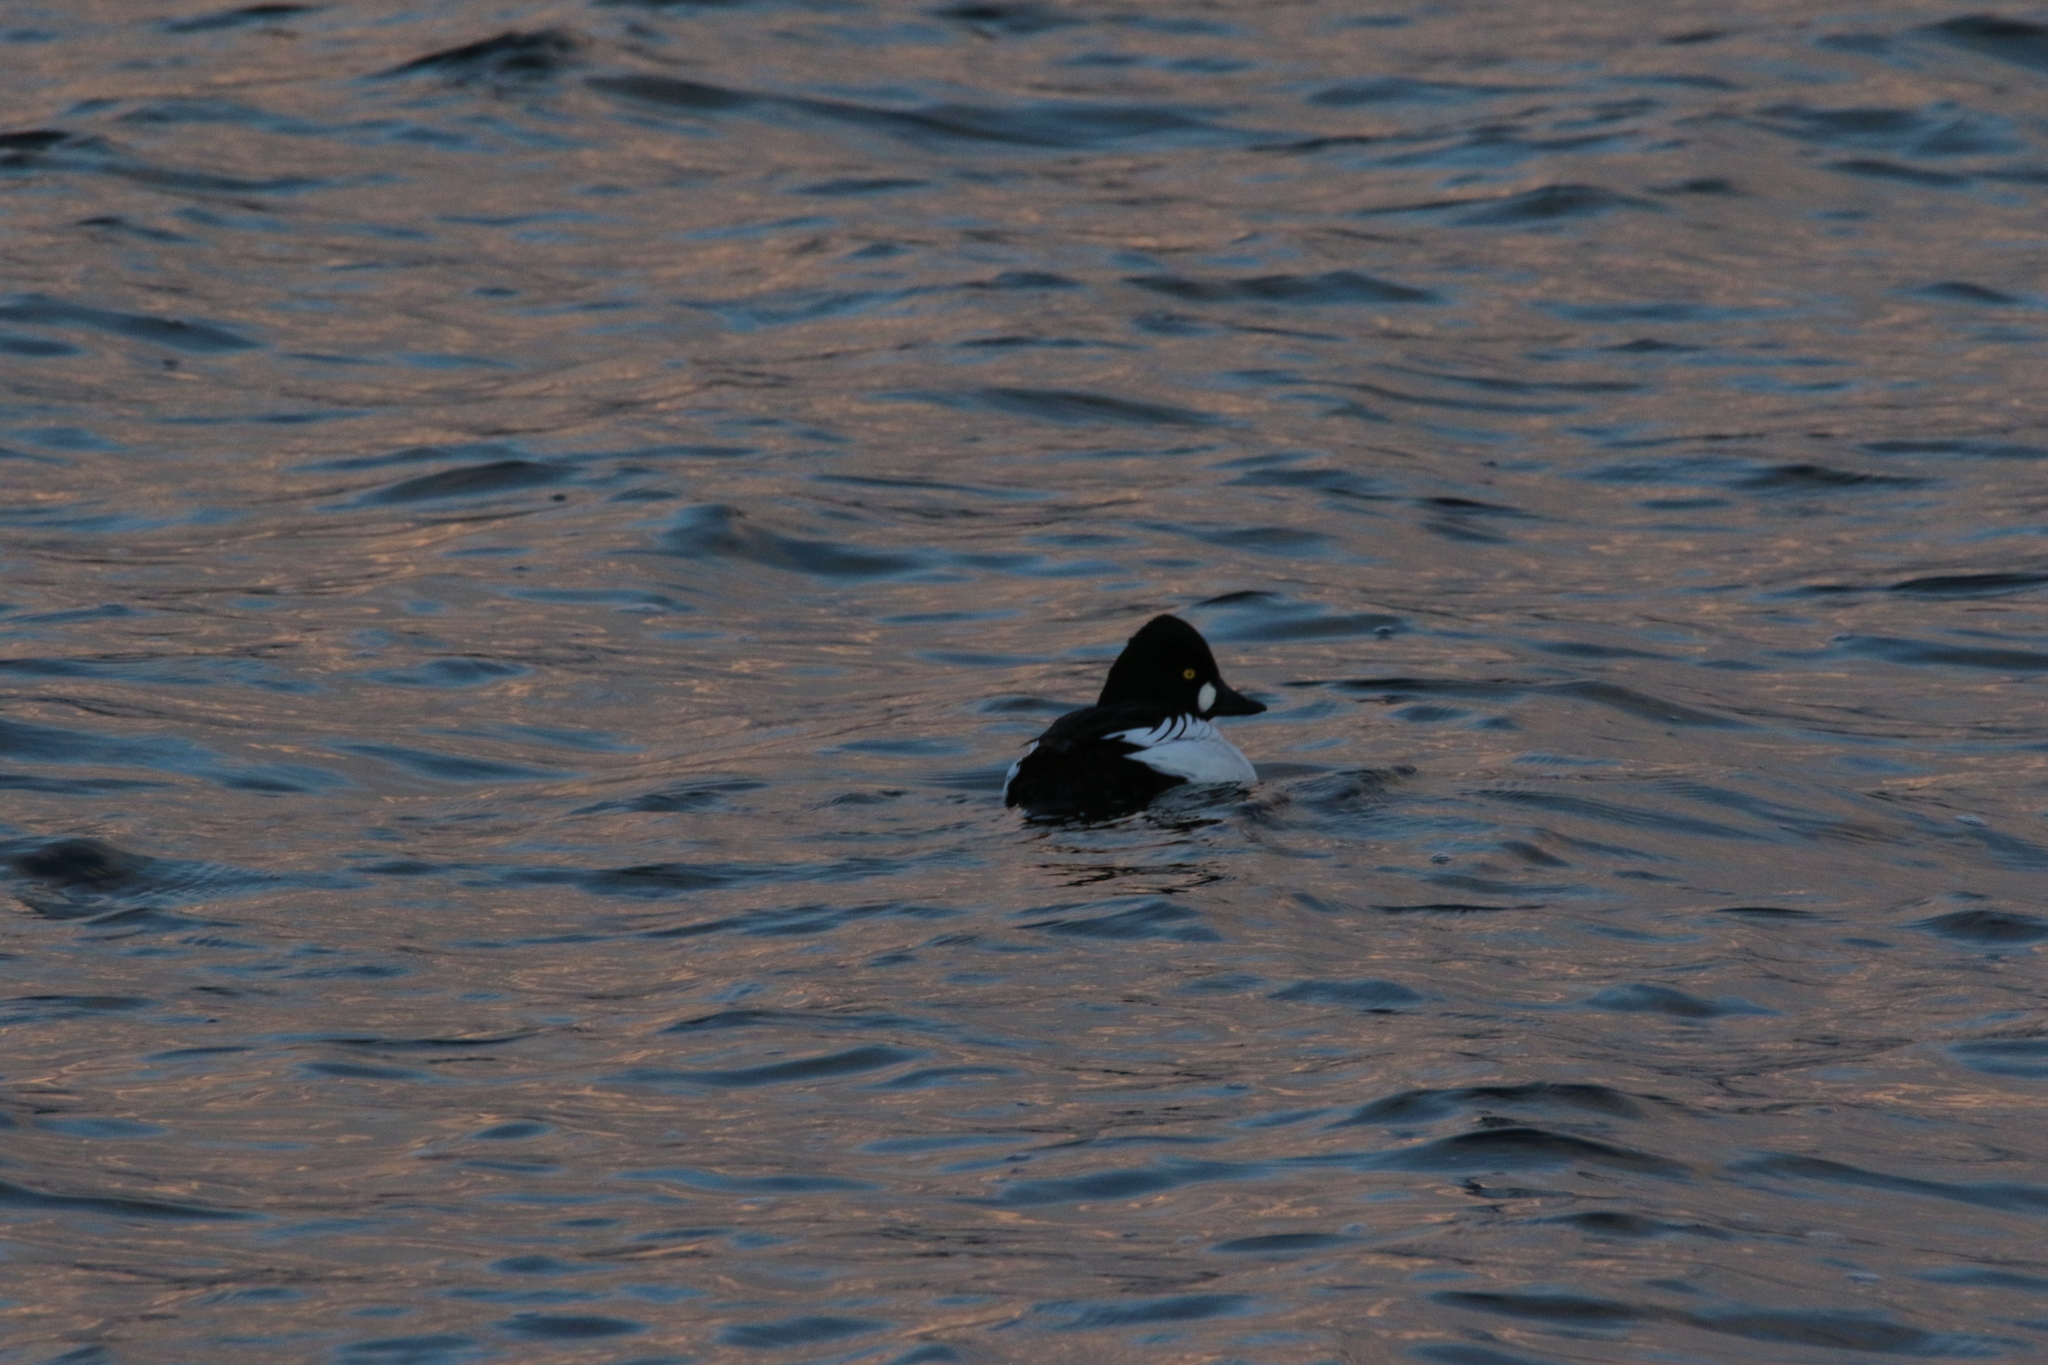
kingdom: Animalia
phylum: Chordata
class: Aves
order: Anseriformes
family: Anatidae
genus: Bucephala
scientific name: Bucephala clangula
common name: Common goldeneye
